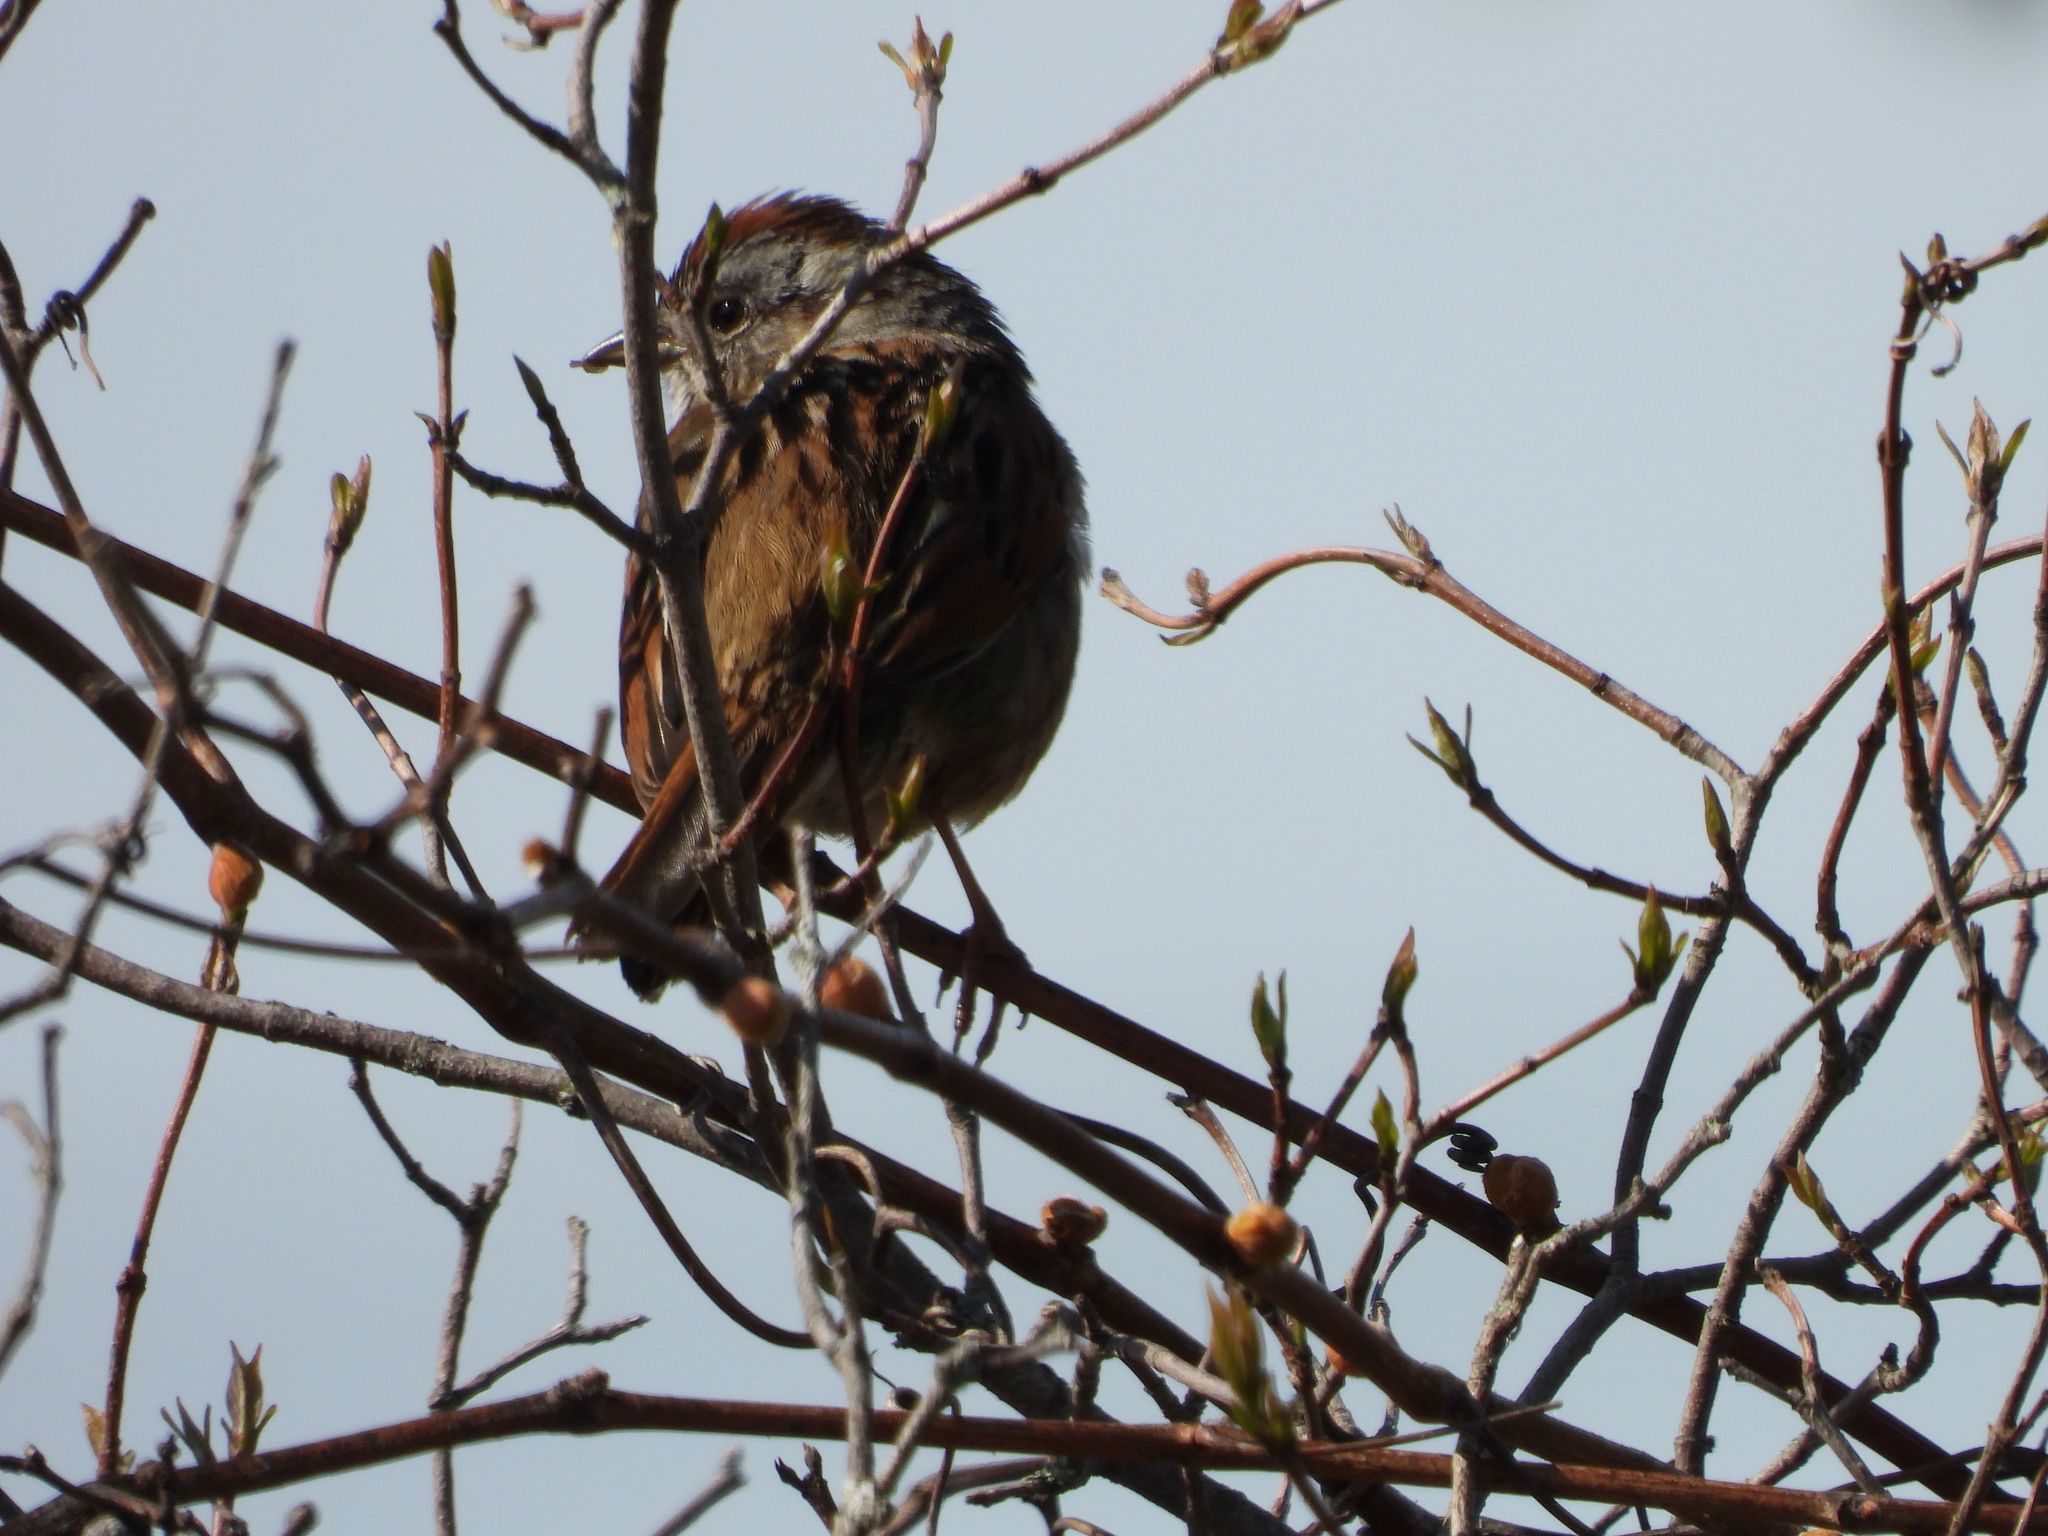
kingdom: Animalia
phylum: Chordata
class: Aves
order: Passeriformes
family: Passerellidae
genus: Melospiza
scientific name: Melospiza georgiana
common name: Swamp sparrow
